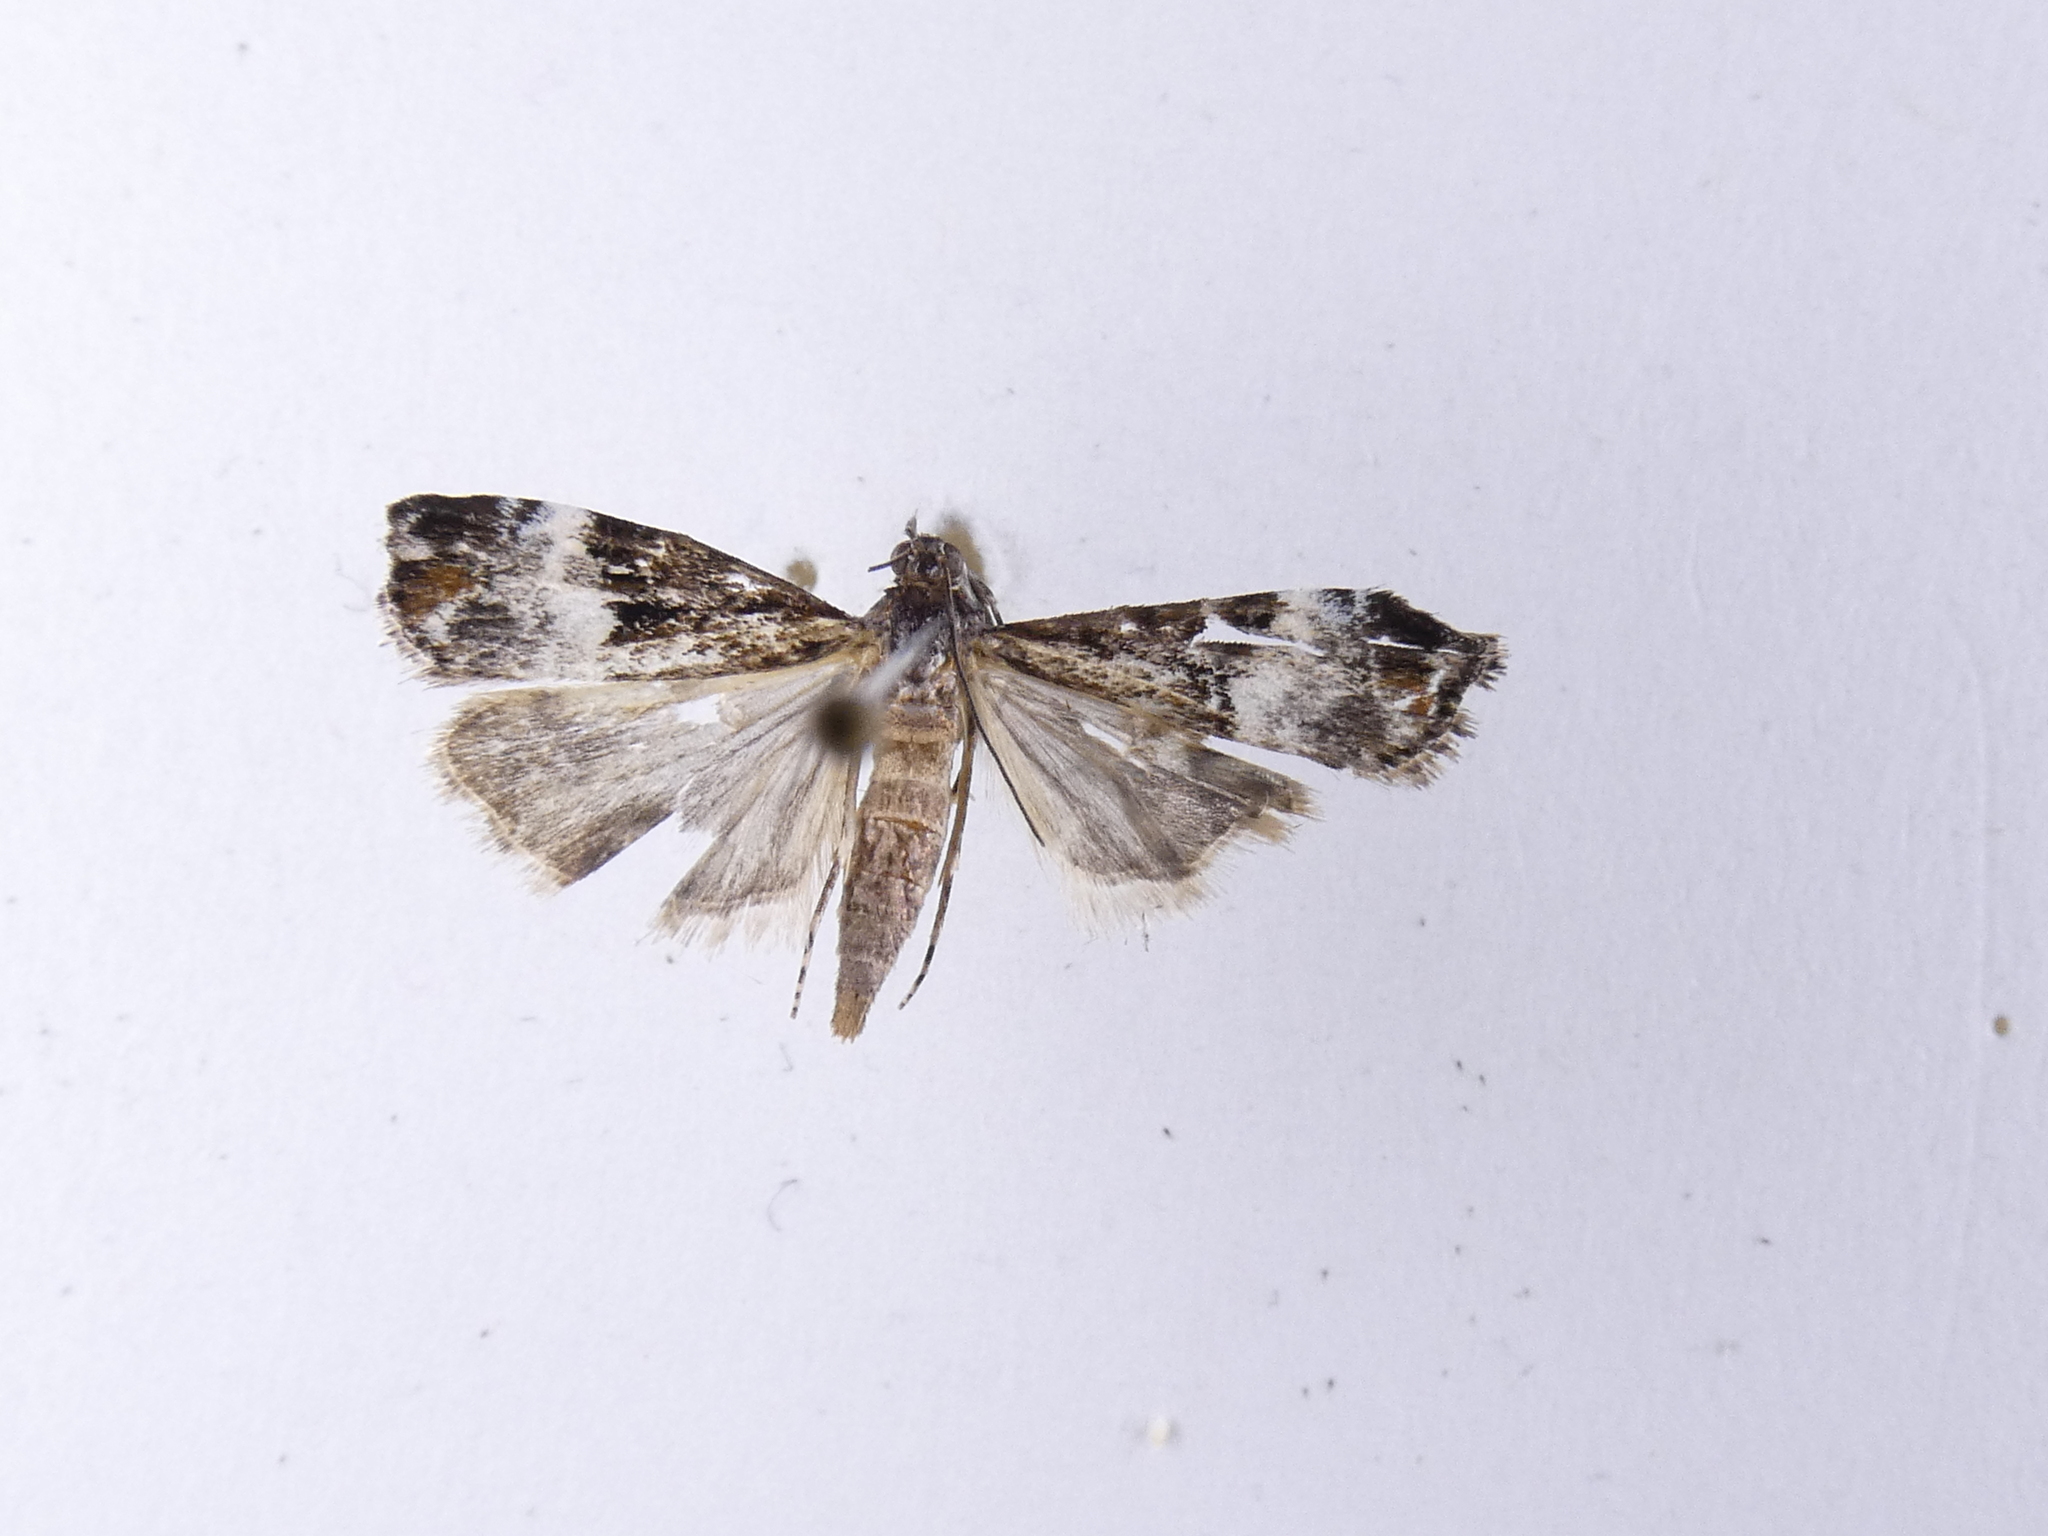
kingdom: Animalia
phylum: Arthropoda
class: Insecta
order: Lepidoptera
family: Crambidae
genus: Scoparia
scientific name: Scoparia minusculalis
